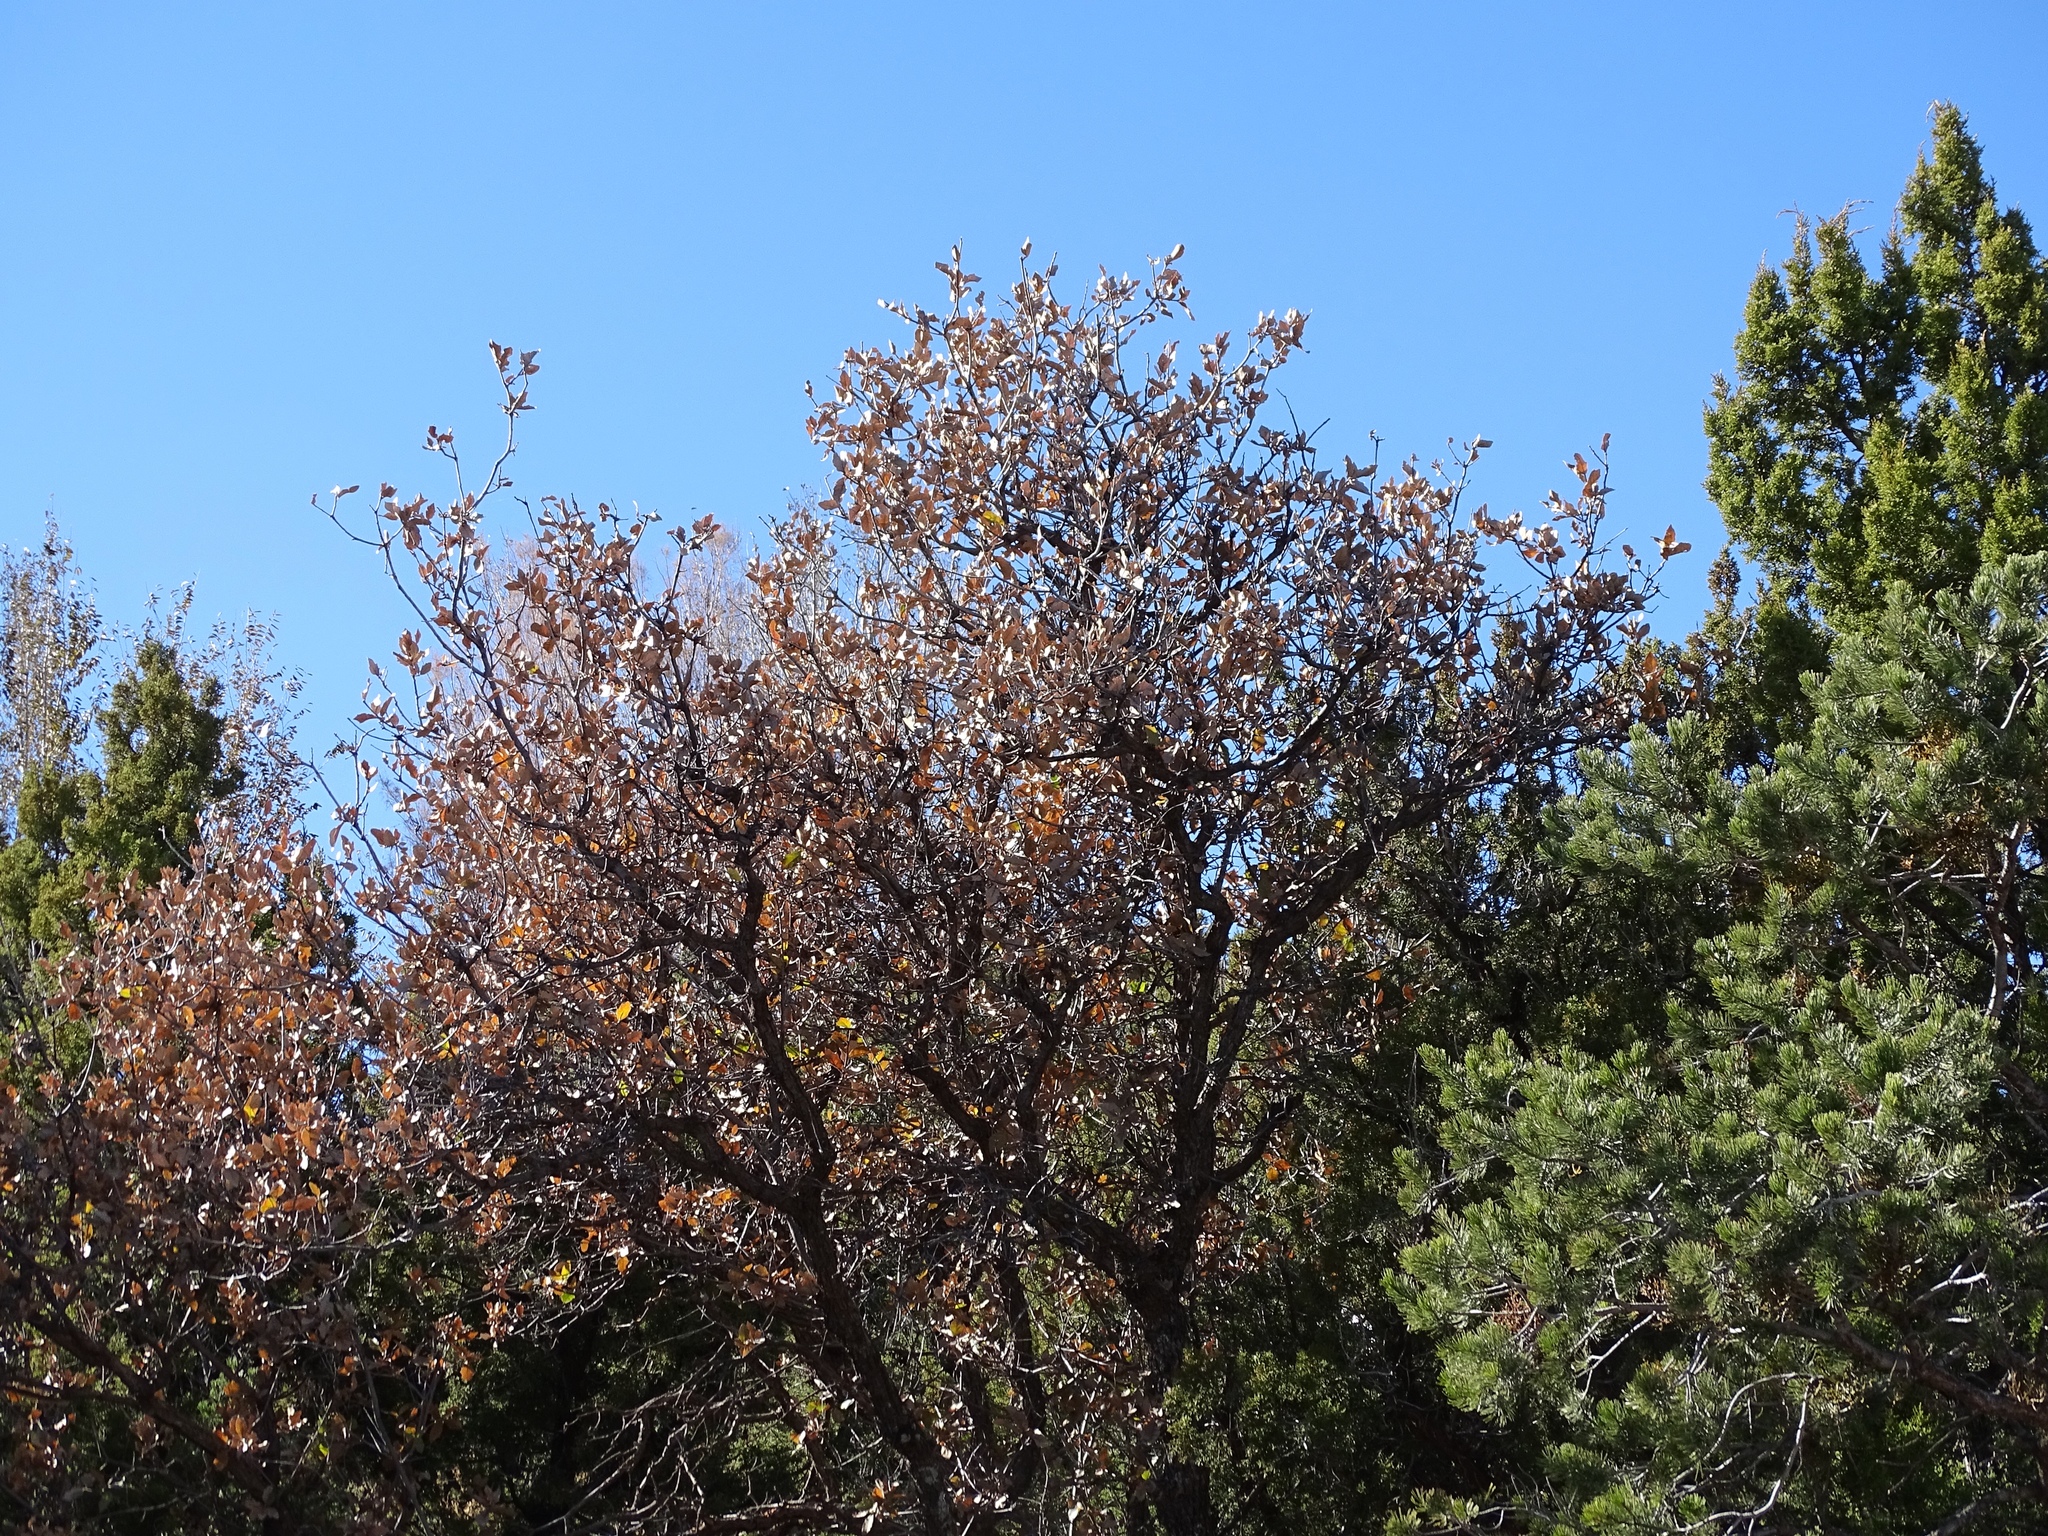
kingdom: Plantae
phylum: Tracheophyta
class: Magnoliopsida
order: Fagales
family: Fagaceae
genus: Quercus
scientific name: Quercus gambelii
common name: Gambel oak
